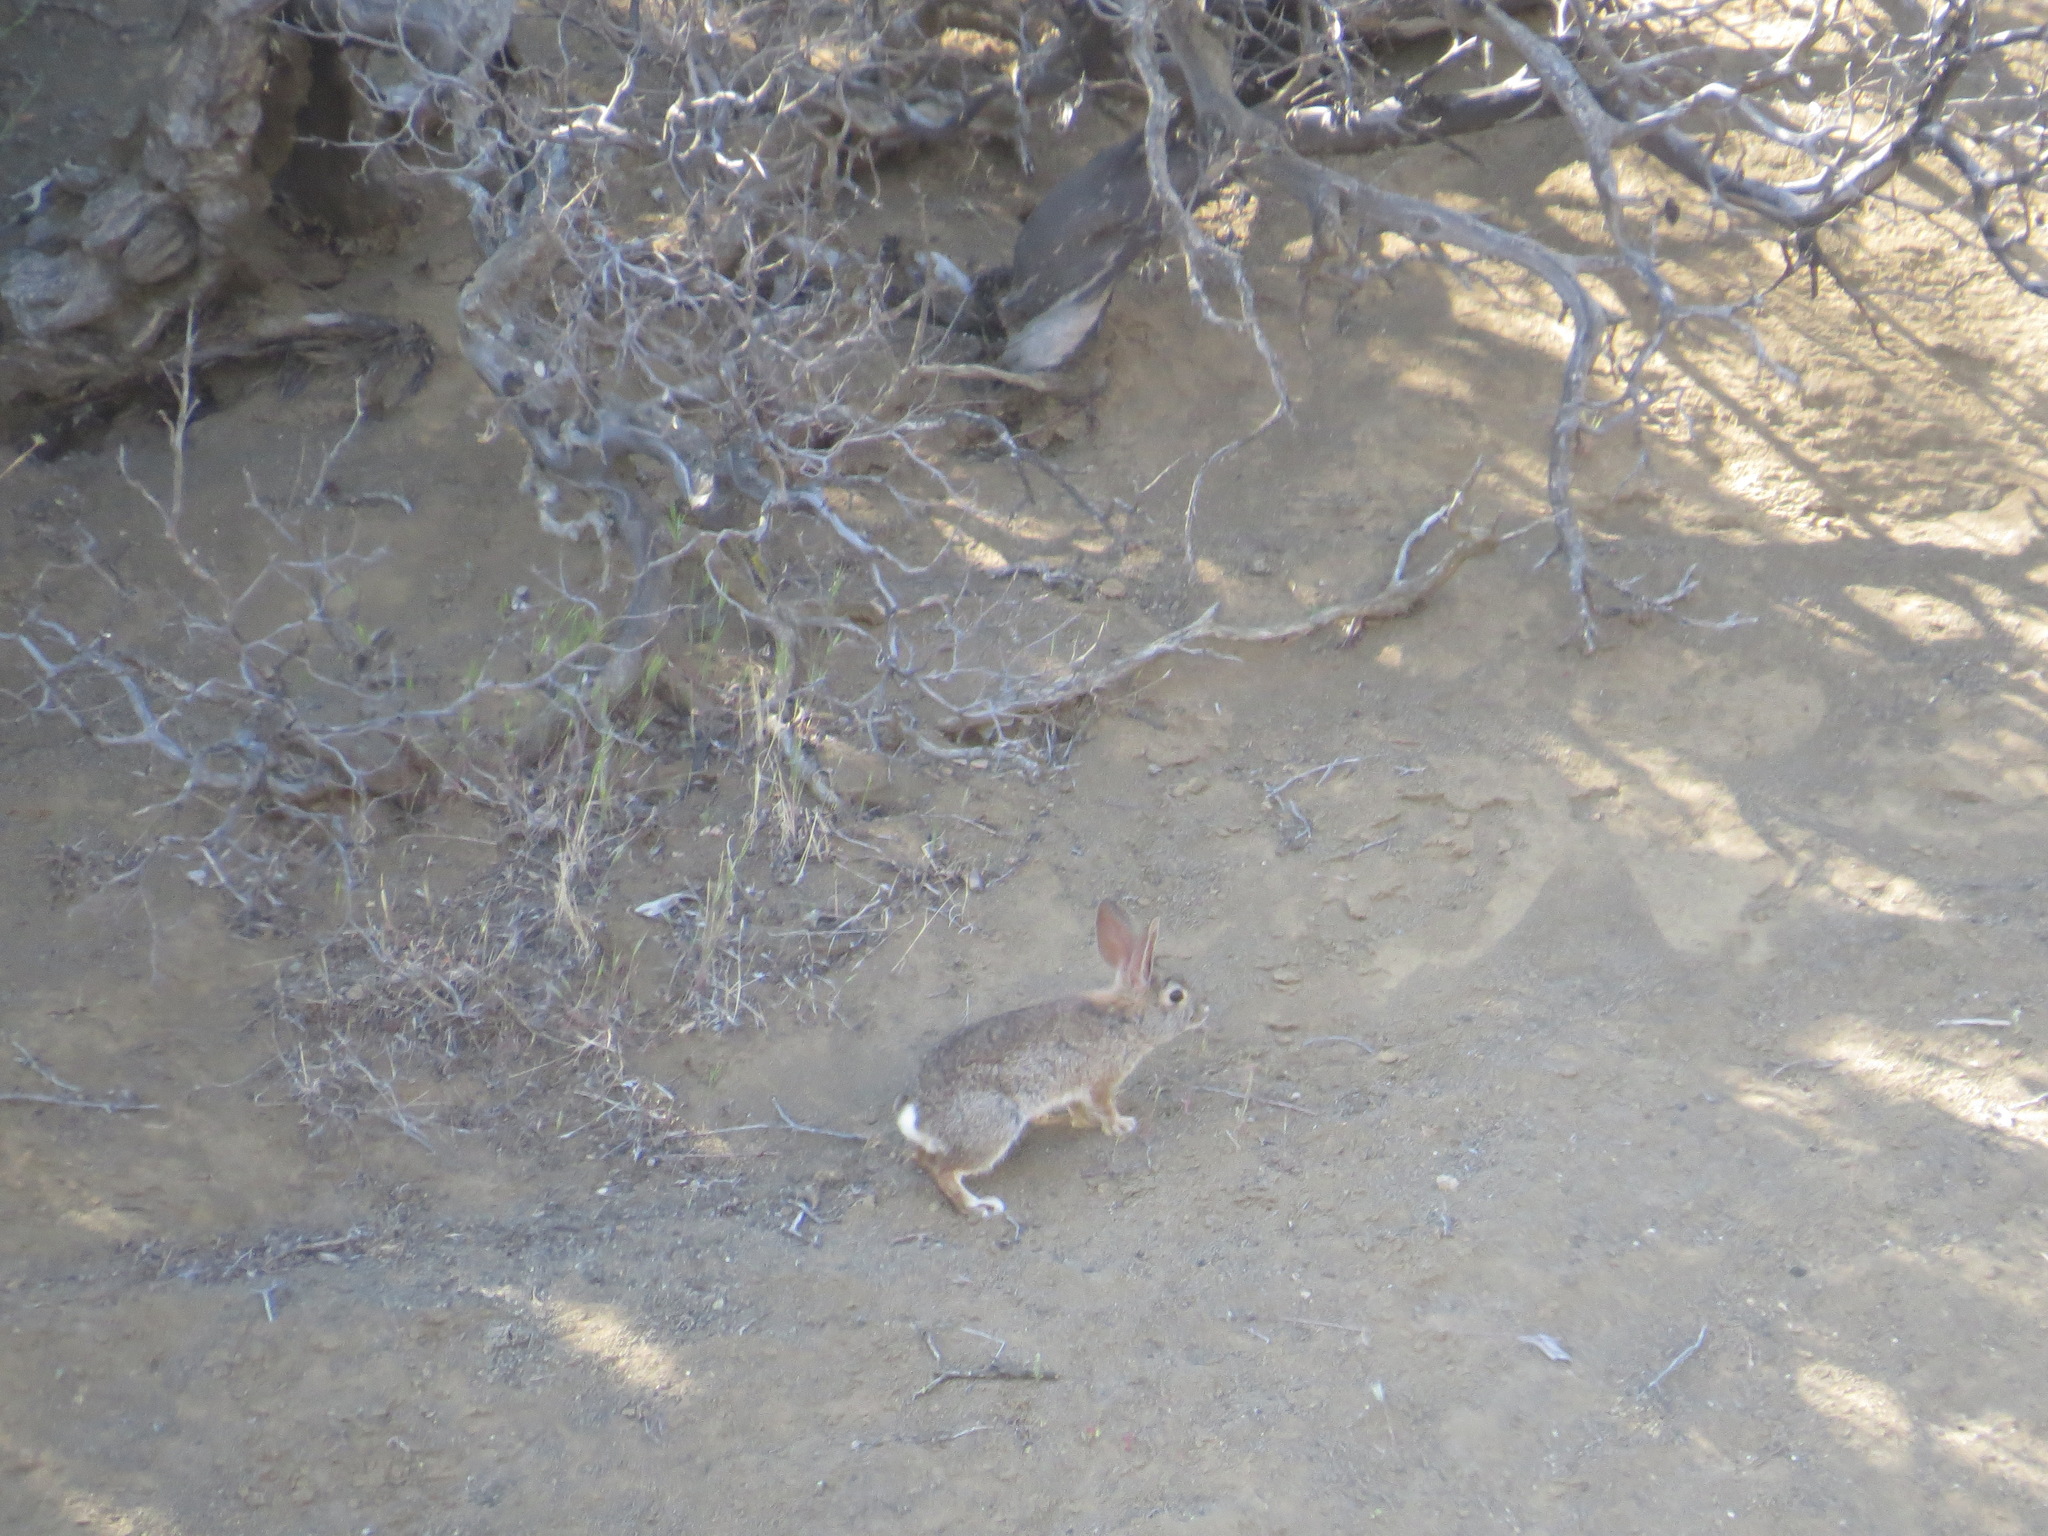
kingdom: Animalia
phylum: Chordata
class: Mammalia
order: Lagomorpha
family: Leporidae
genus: Sylvilagus
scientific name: Sylvilagus audubonii
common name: Desert cottontail
